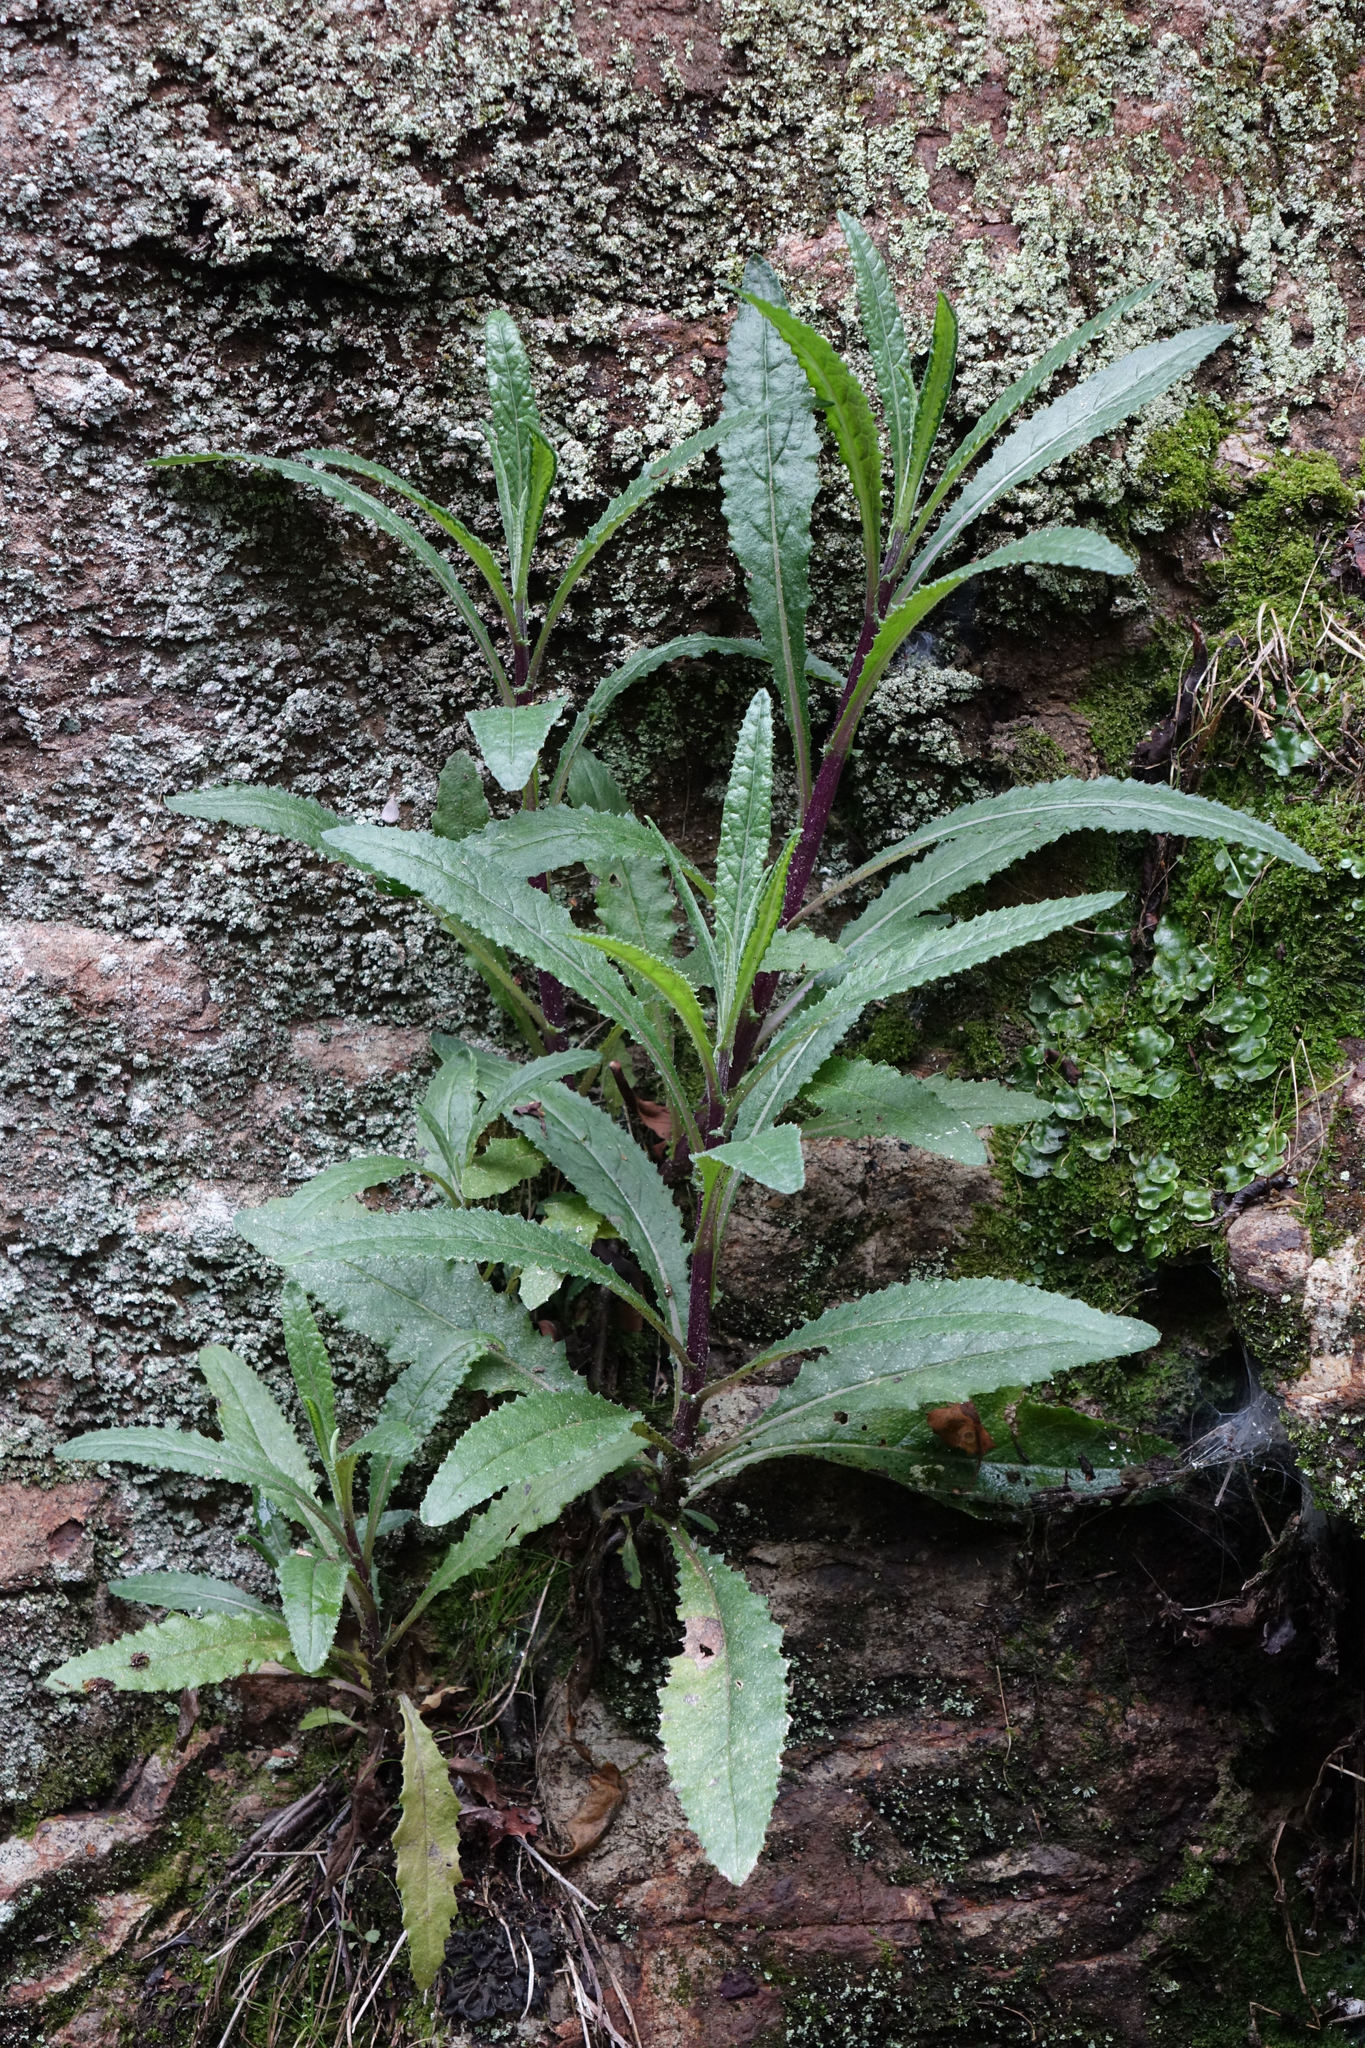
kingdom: Plantae
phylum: Tracheophyta
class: Magnoliopsida
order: Asterales
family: Asteraceae
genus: Senecio
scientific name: Senecio minimus
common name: Toothed fireweed
